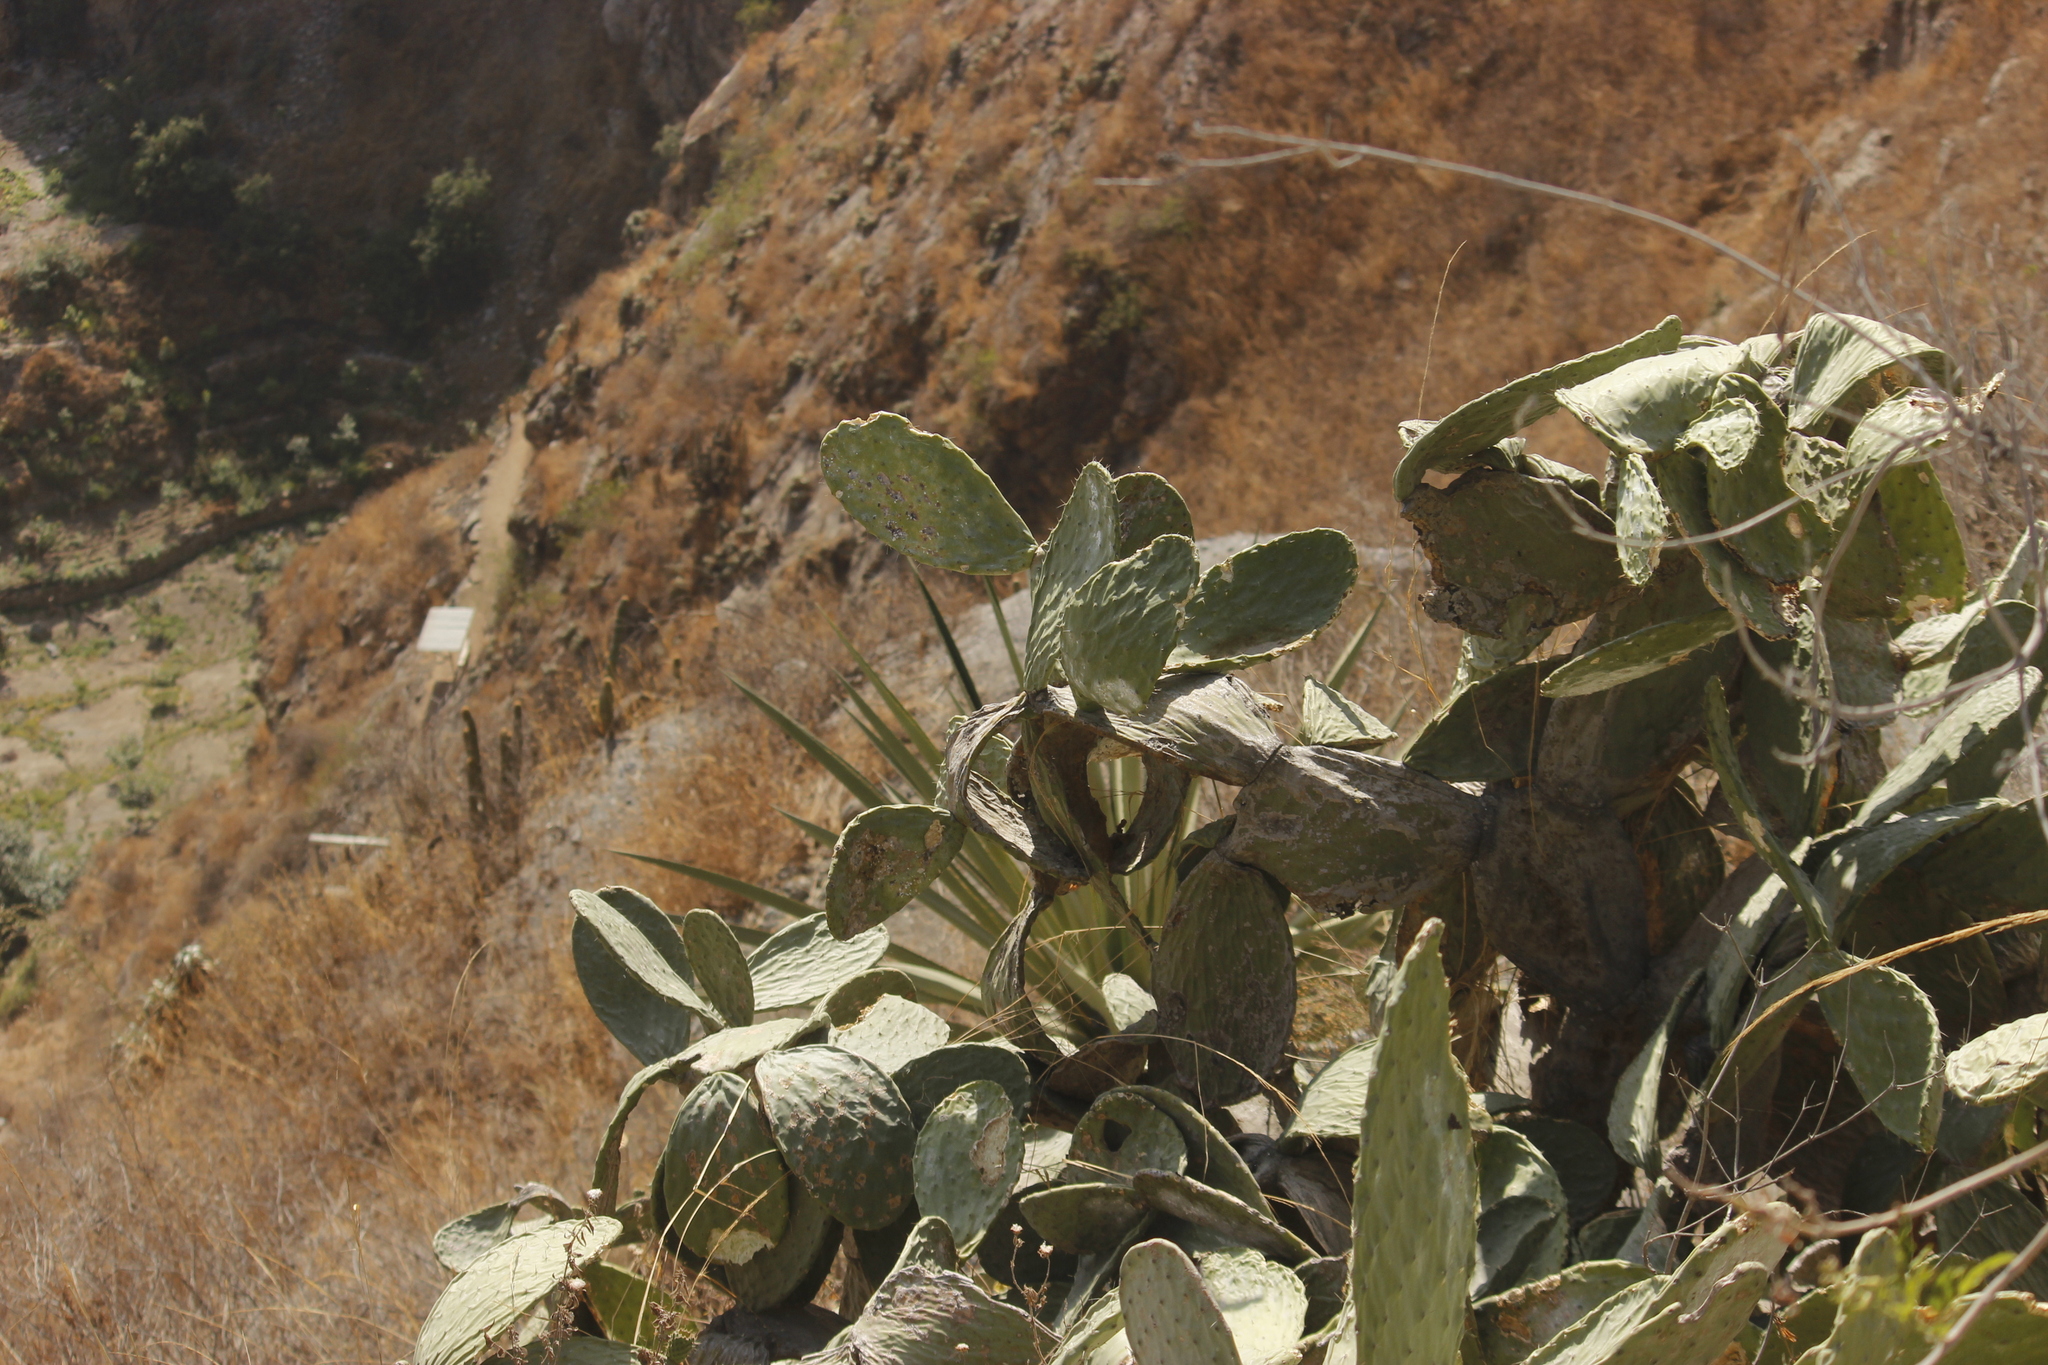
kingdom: Plantae
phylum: Tracheophyta
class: Magnoliopsida
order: Caryophyllales
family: Cactaceae
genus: Opuntia
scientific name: Opuntia ficus-indica
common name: Barbary fig
